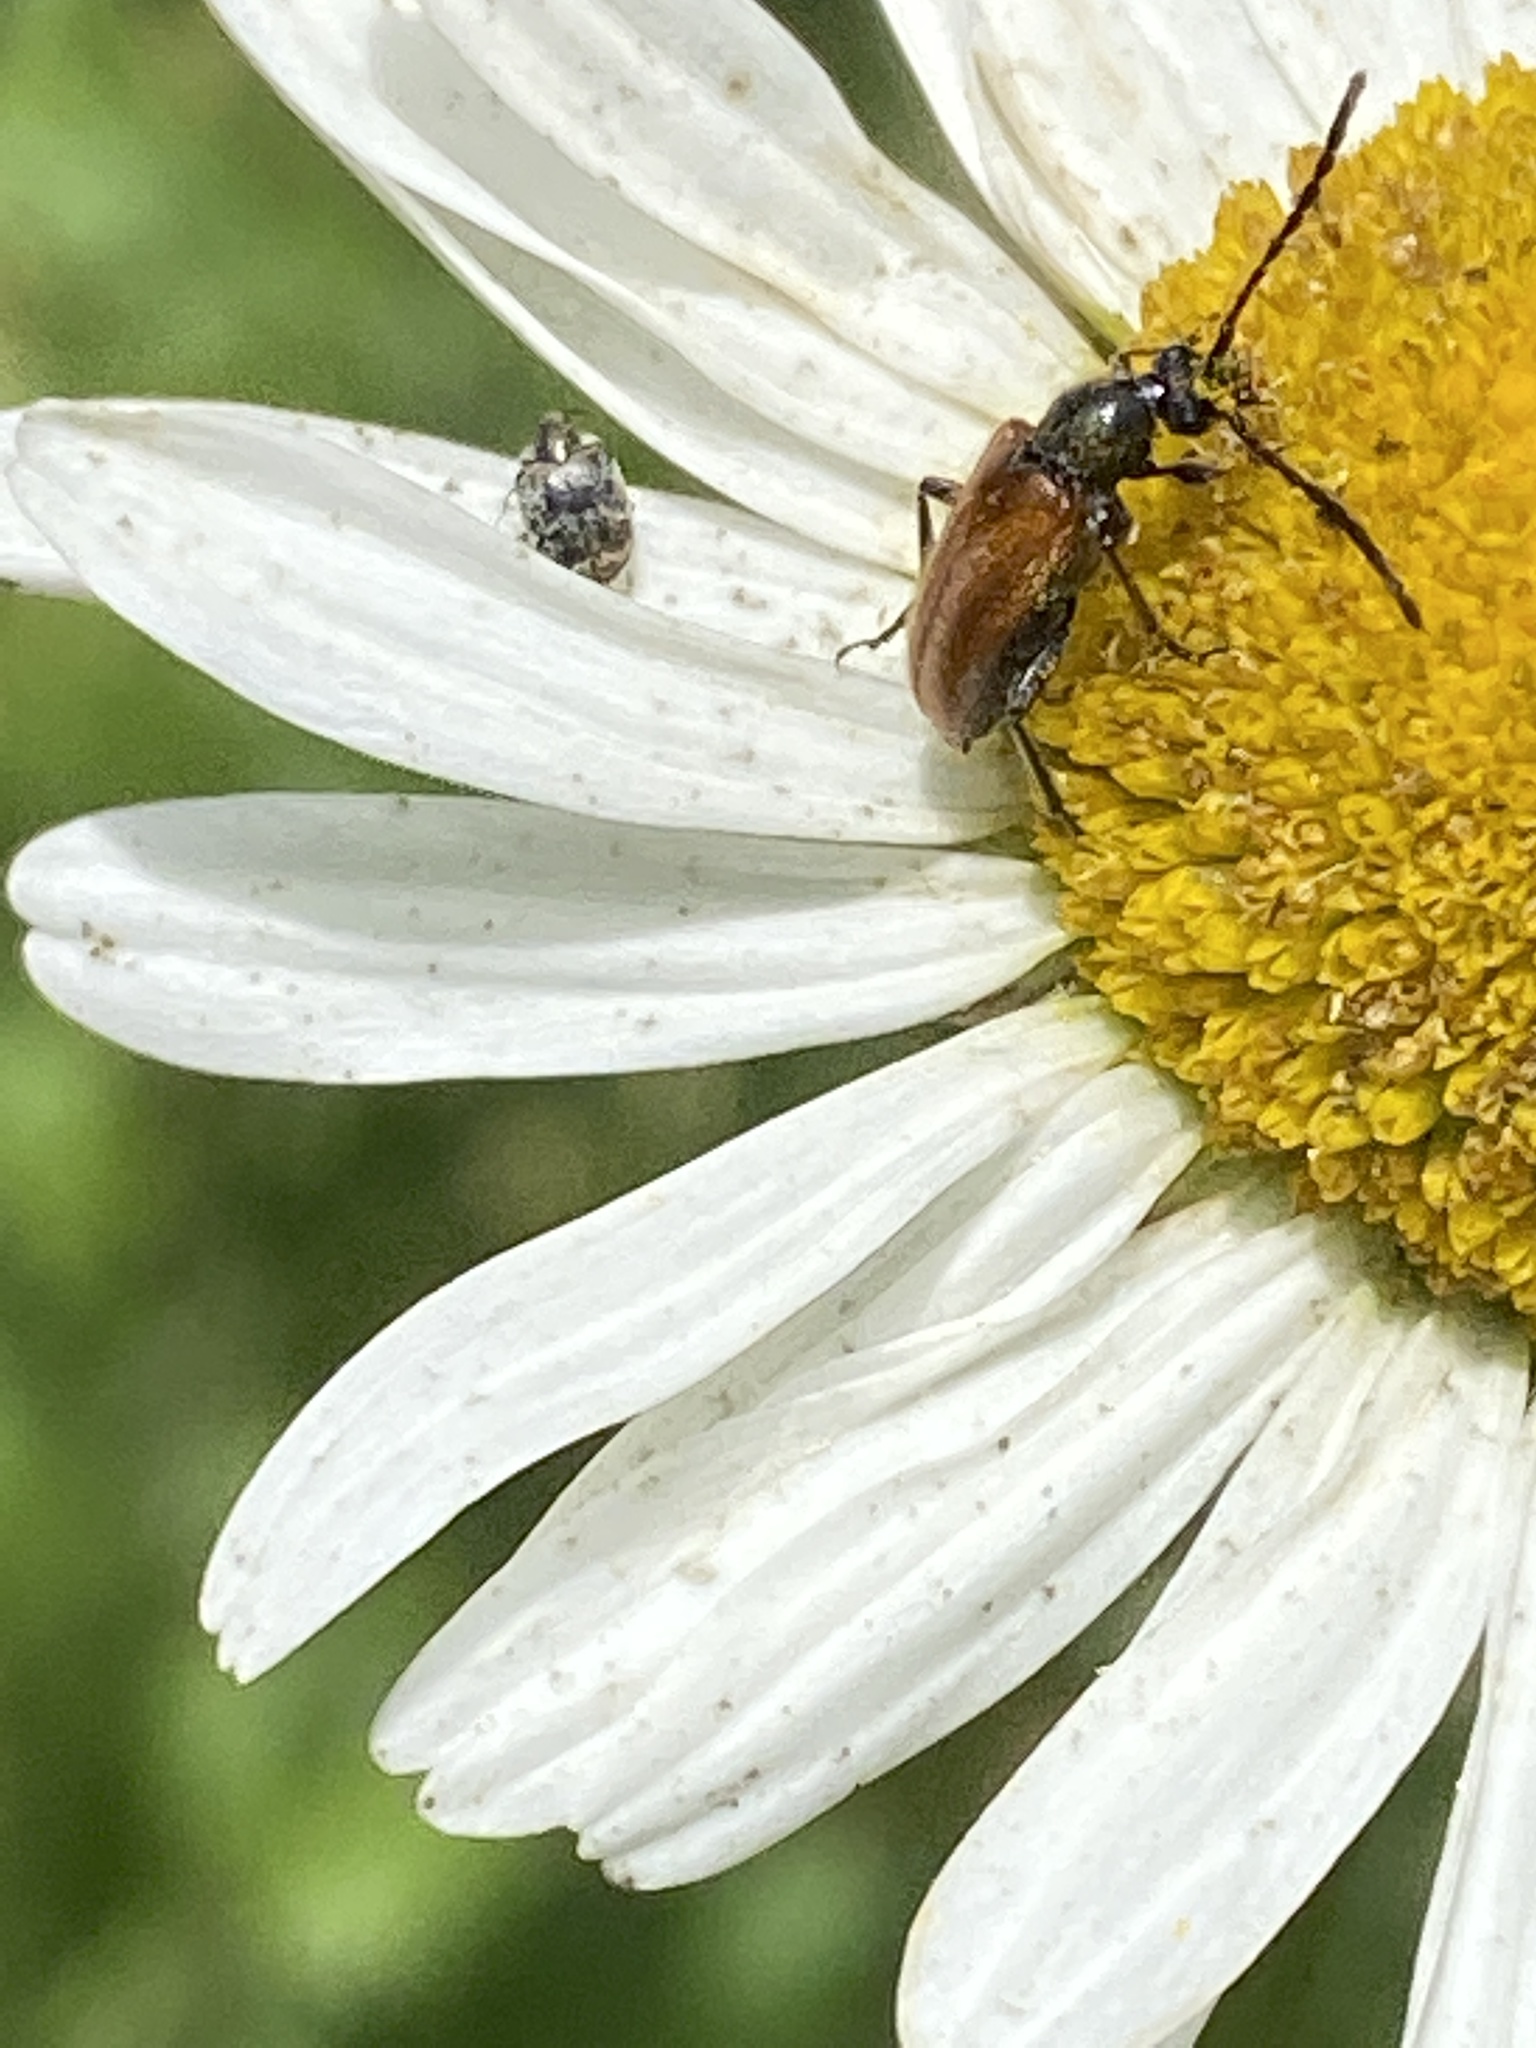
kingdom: Animalia
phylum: Arthropoda
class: Insecta
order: Coleoptera
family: Cerambycidae
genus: Pseudovadonia
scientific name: Pseudovadonia livida
